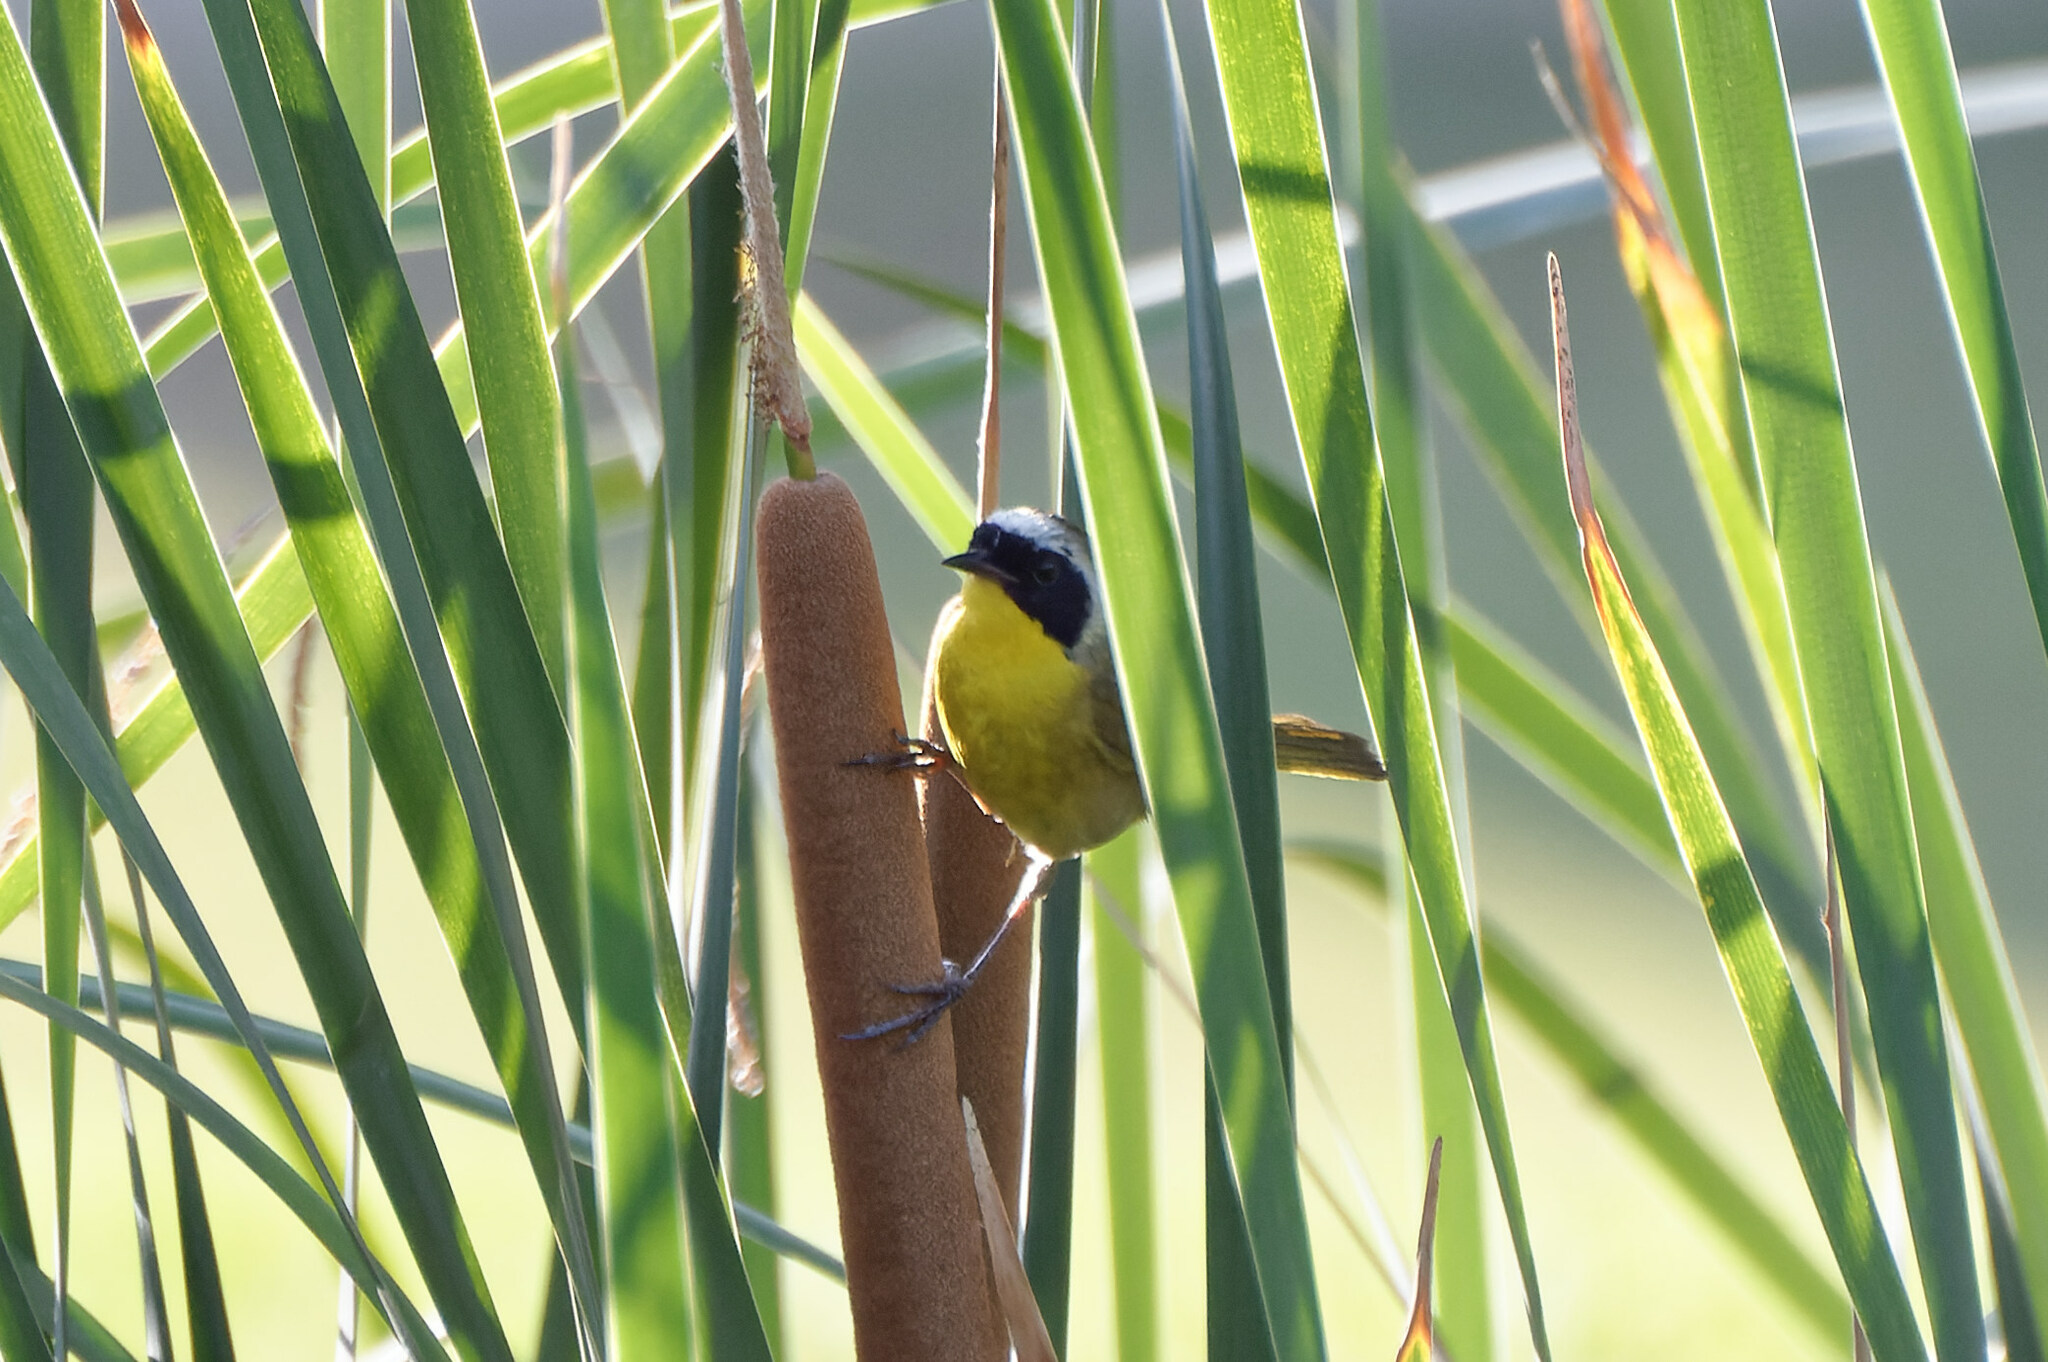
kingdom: Animalia
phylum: Chordata
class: Aves
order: Passeriformes
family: Parulidae
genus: Geothlypis
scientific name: Geothlypis trichas
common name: Common yellowthroat
